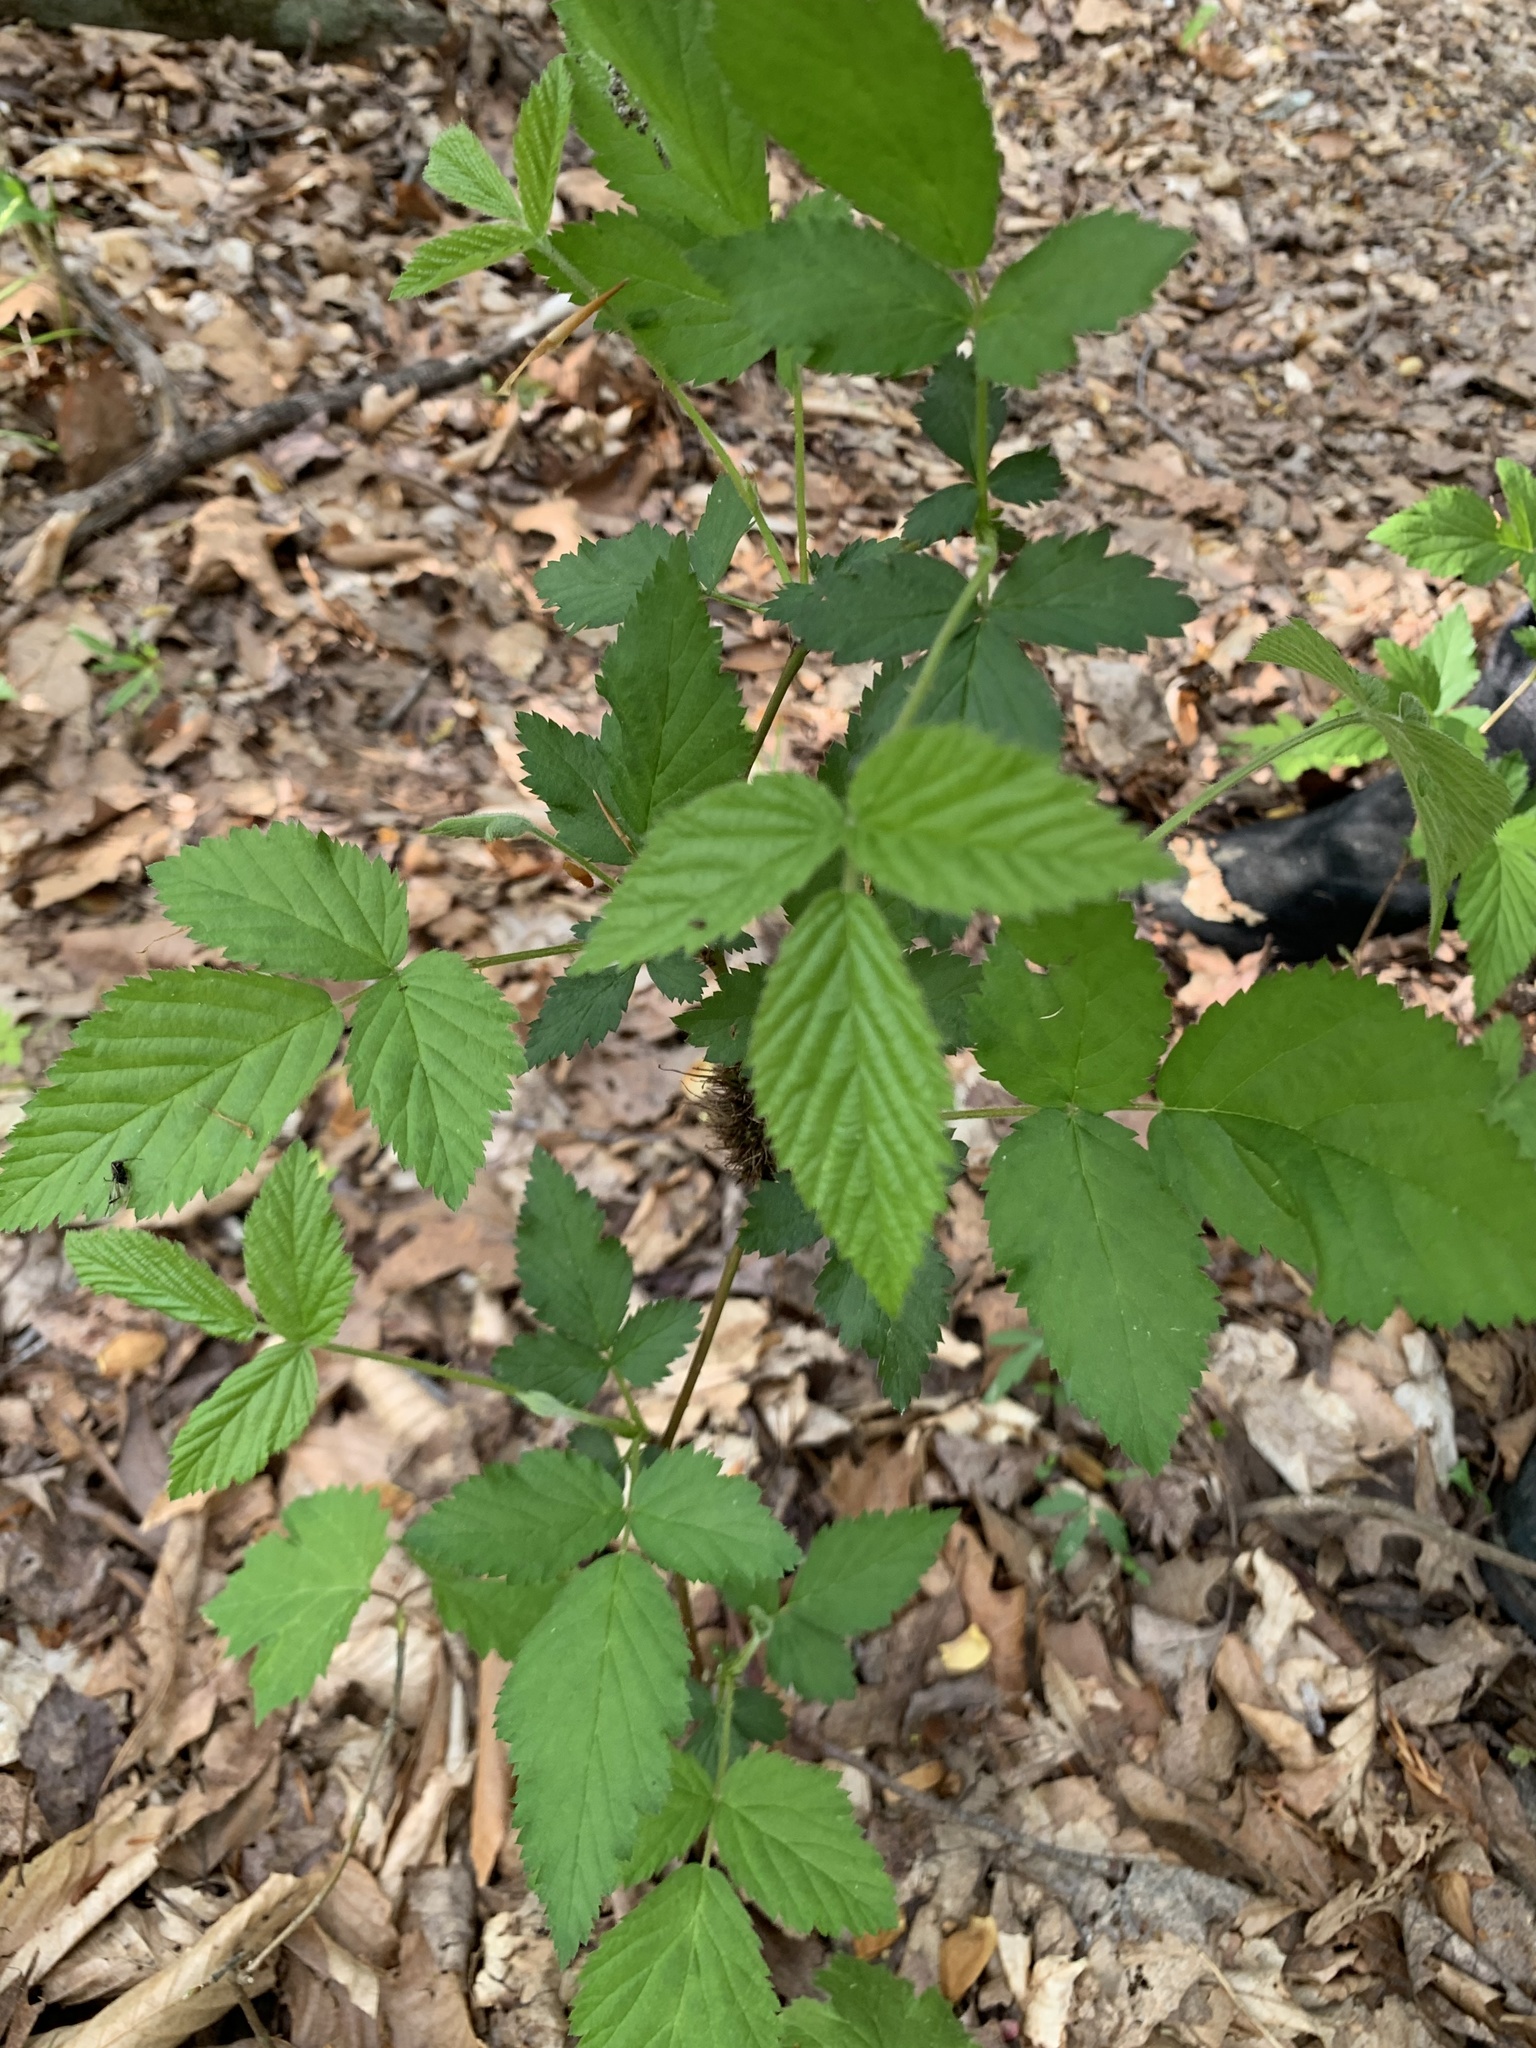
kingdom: Animalia
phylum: Arthropoda
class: Insecta
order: Hymenoptera
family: Cynipidae
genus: Diastrophus
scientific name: Diastrophus
